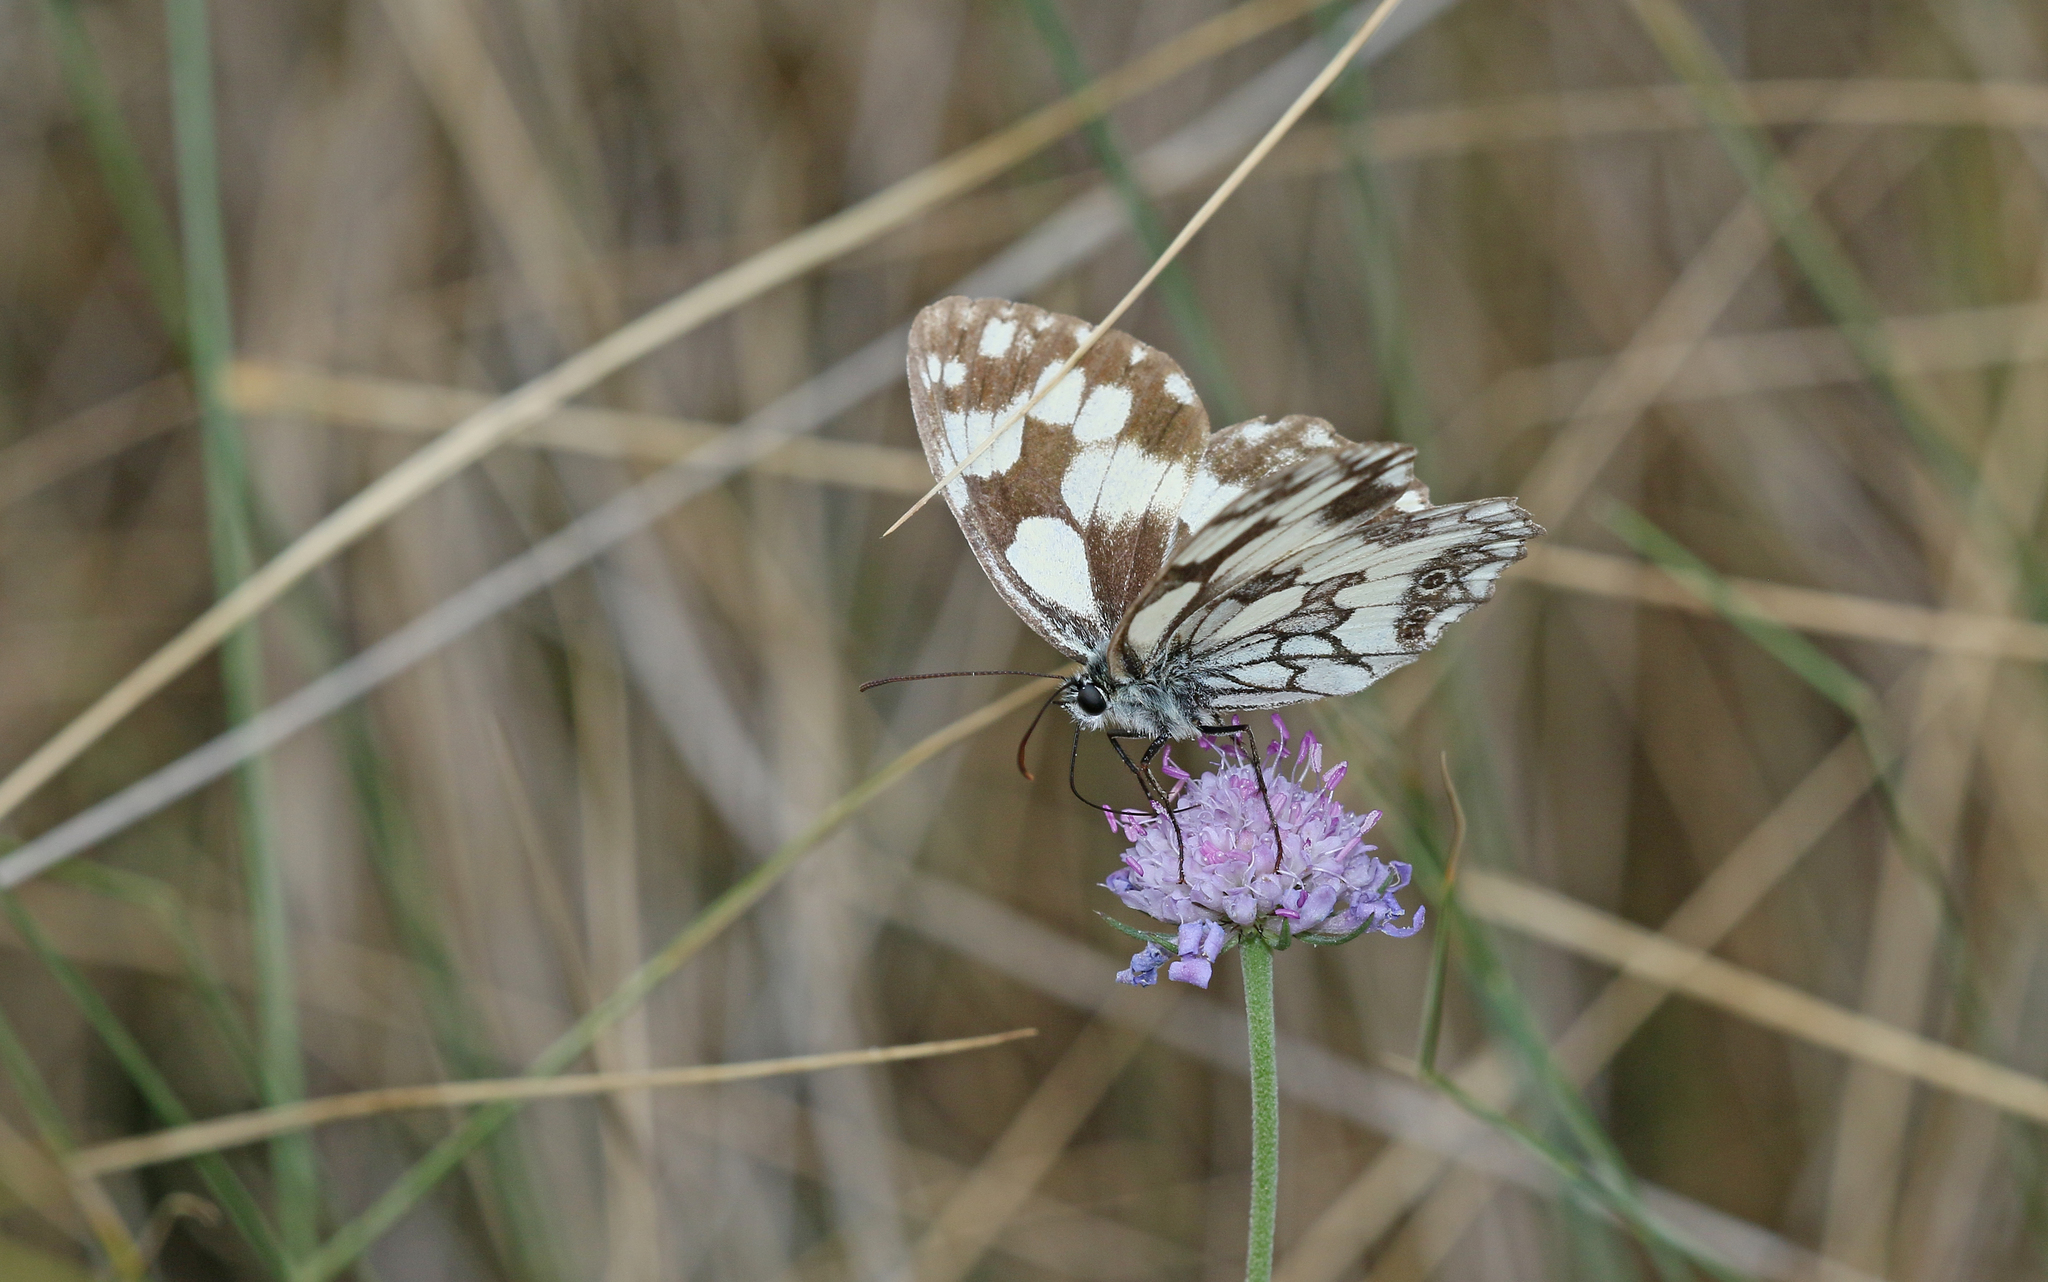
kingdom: Animalia
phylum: Arthropoda
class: Insecta
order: Lepidoptera
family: Nymphalidae
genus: Melanargia
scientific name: Melanargia galathea
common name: Marbled white
